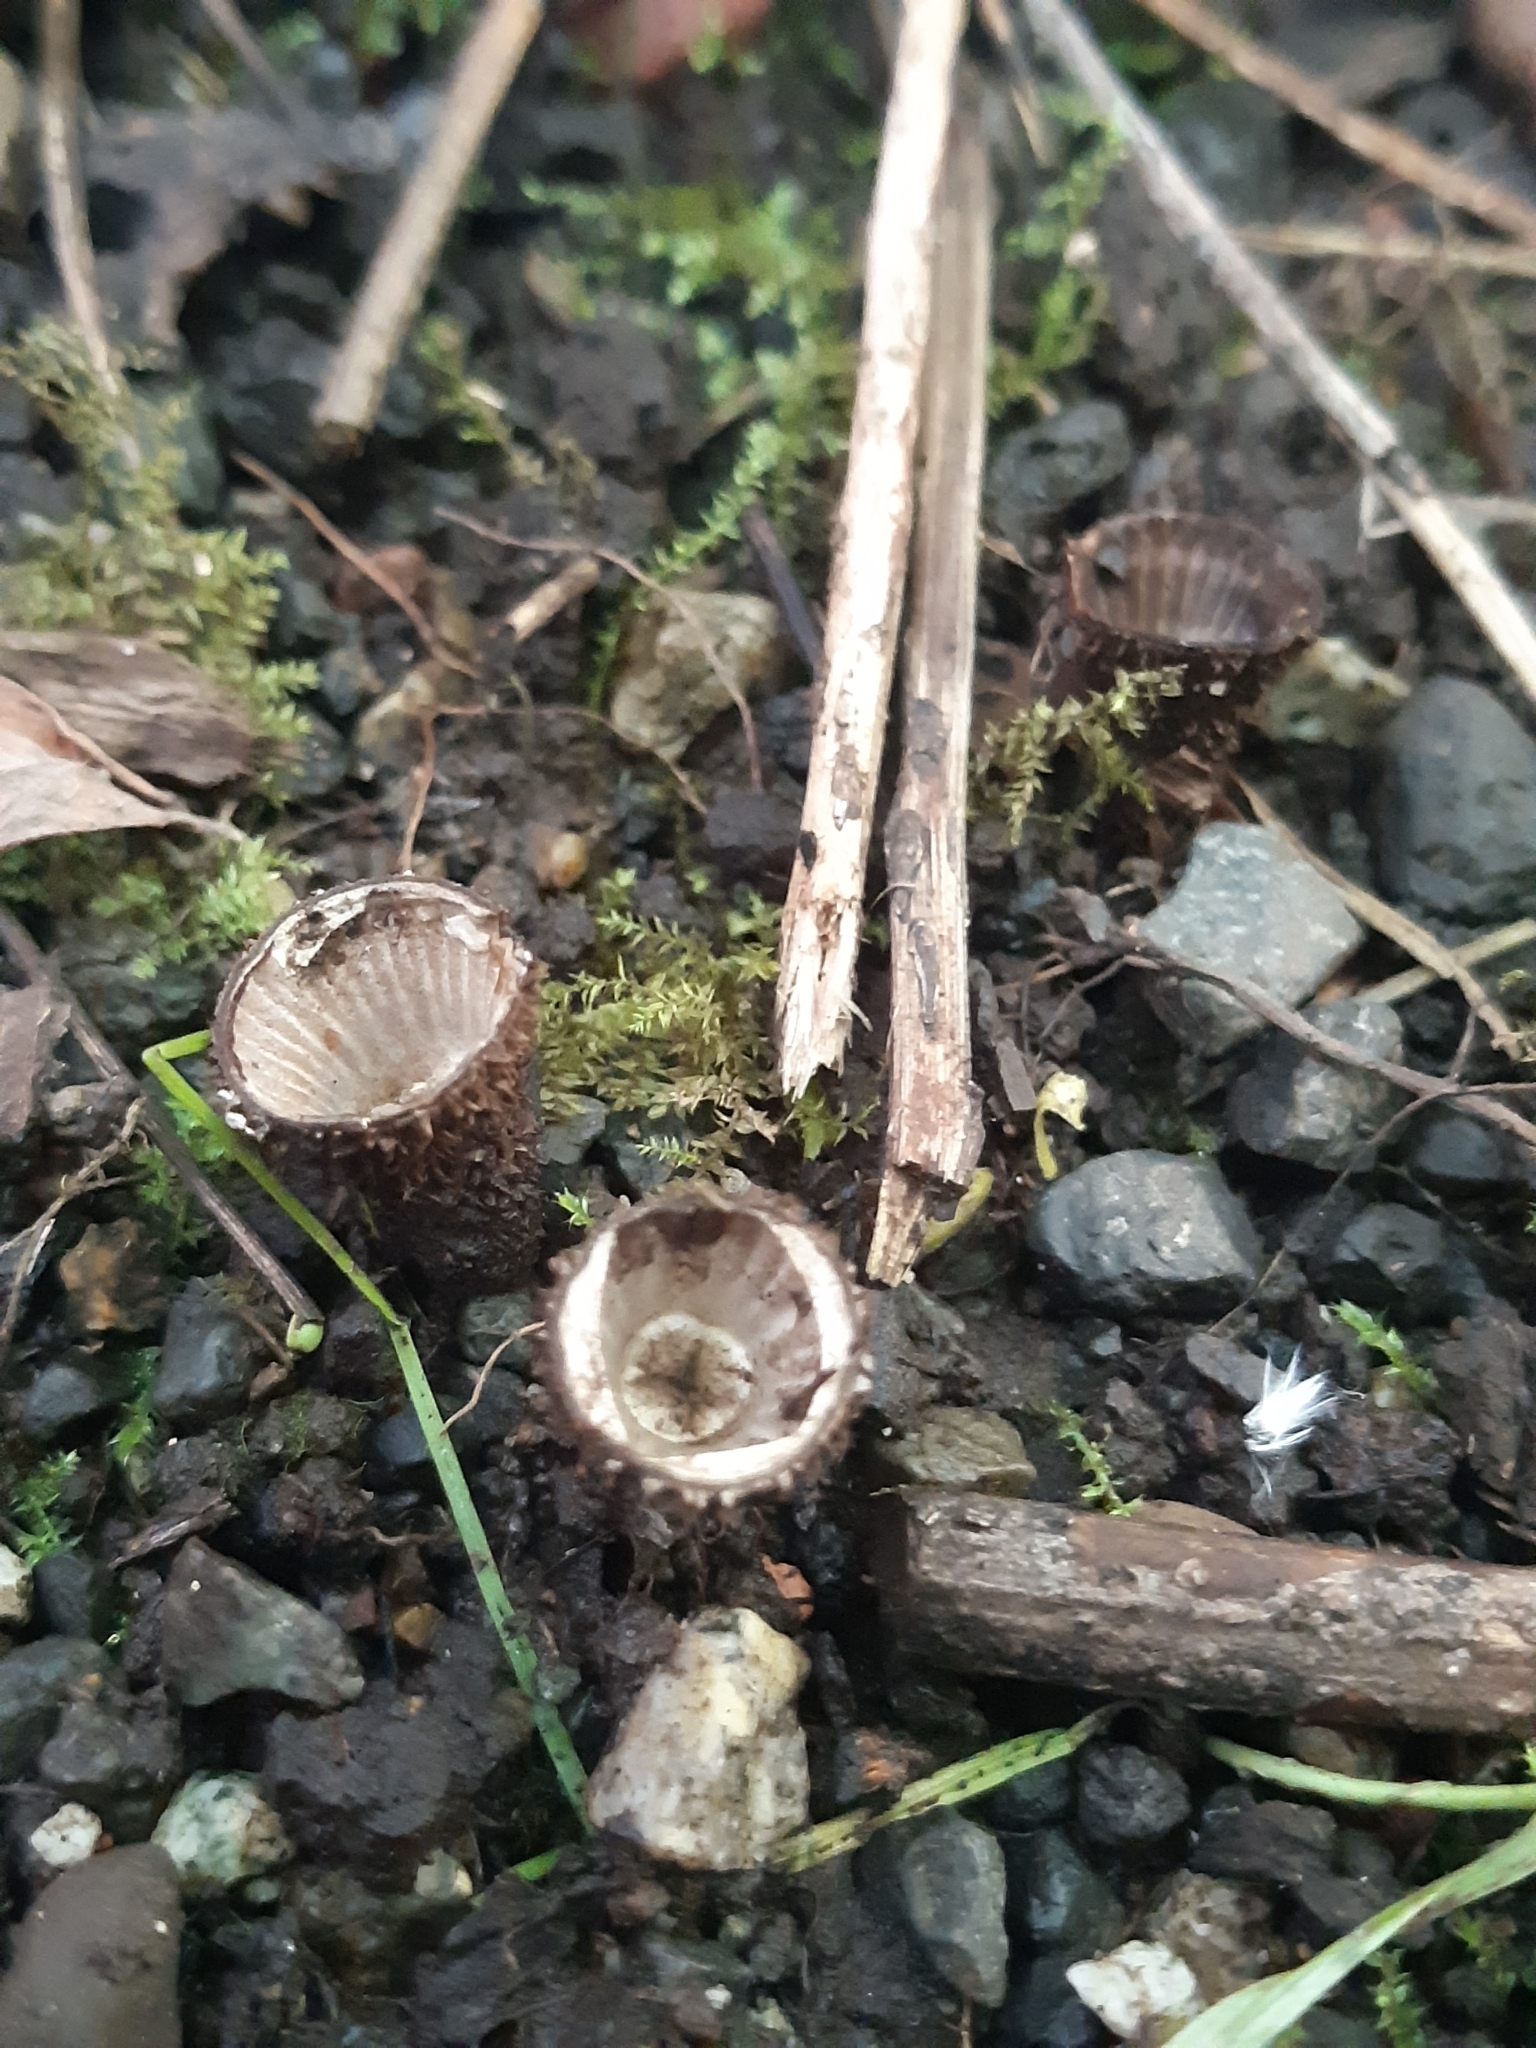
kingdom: Fungi
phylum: Basidiomycota
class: Agaricomycetes
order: Agaricales
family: Agaricaceae
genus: Cyathus
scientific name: Cyathus striatus
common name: Fluted bird's nest
